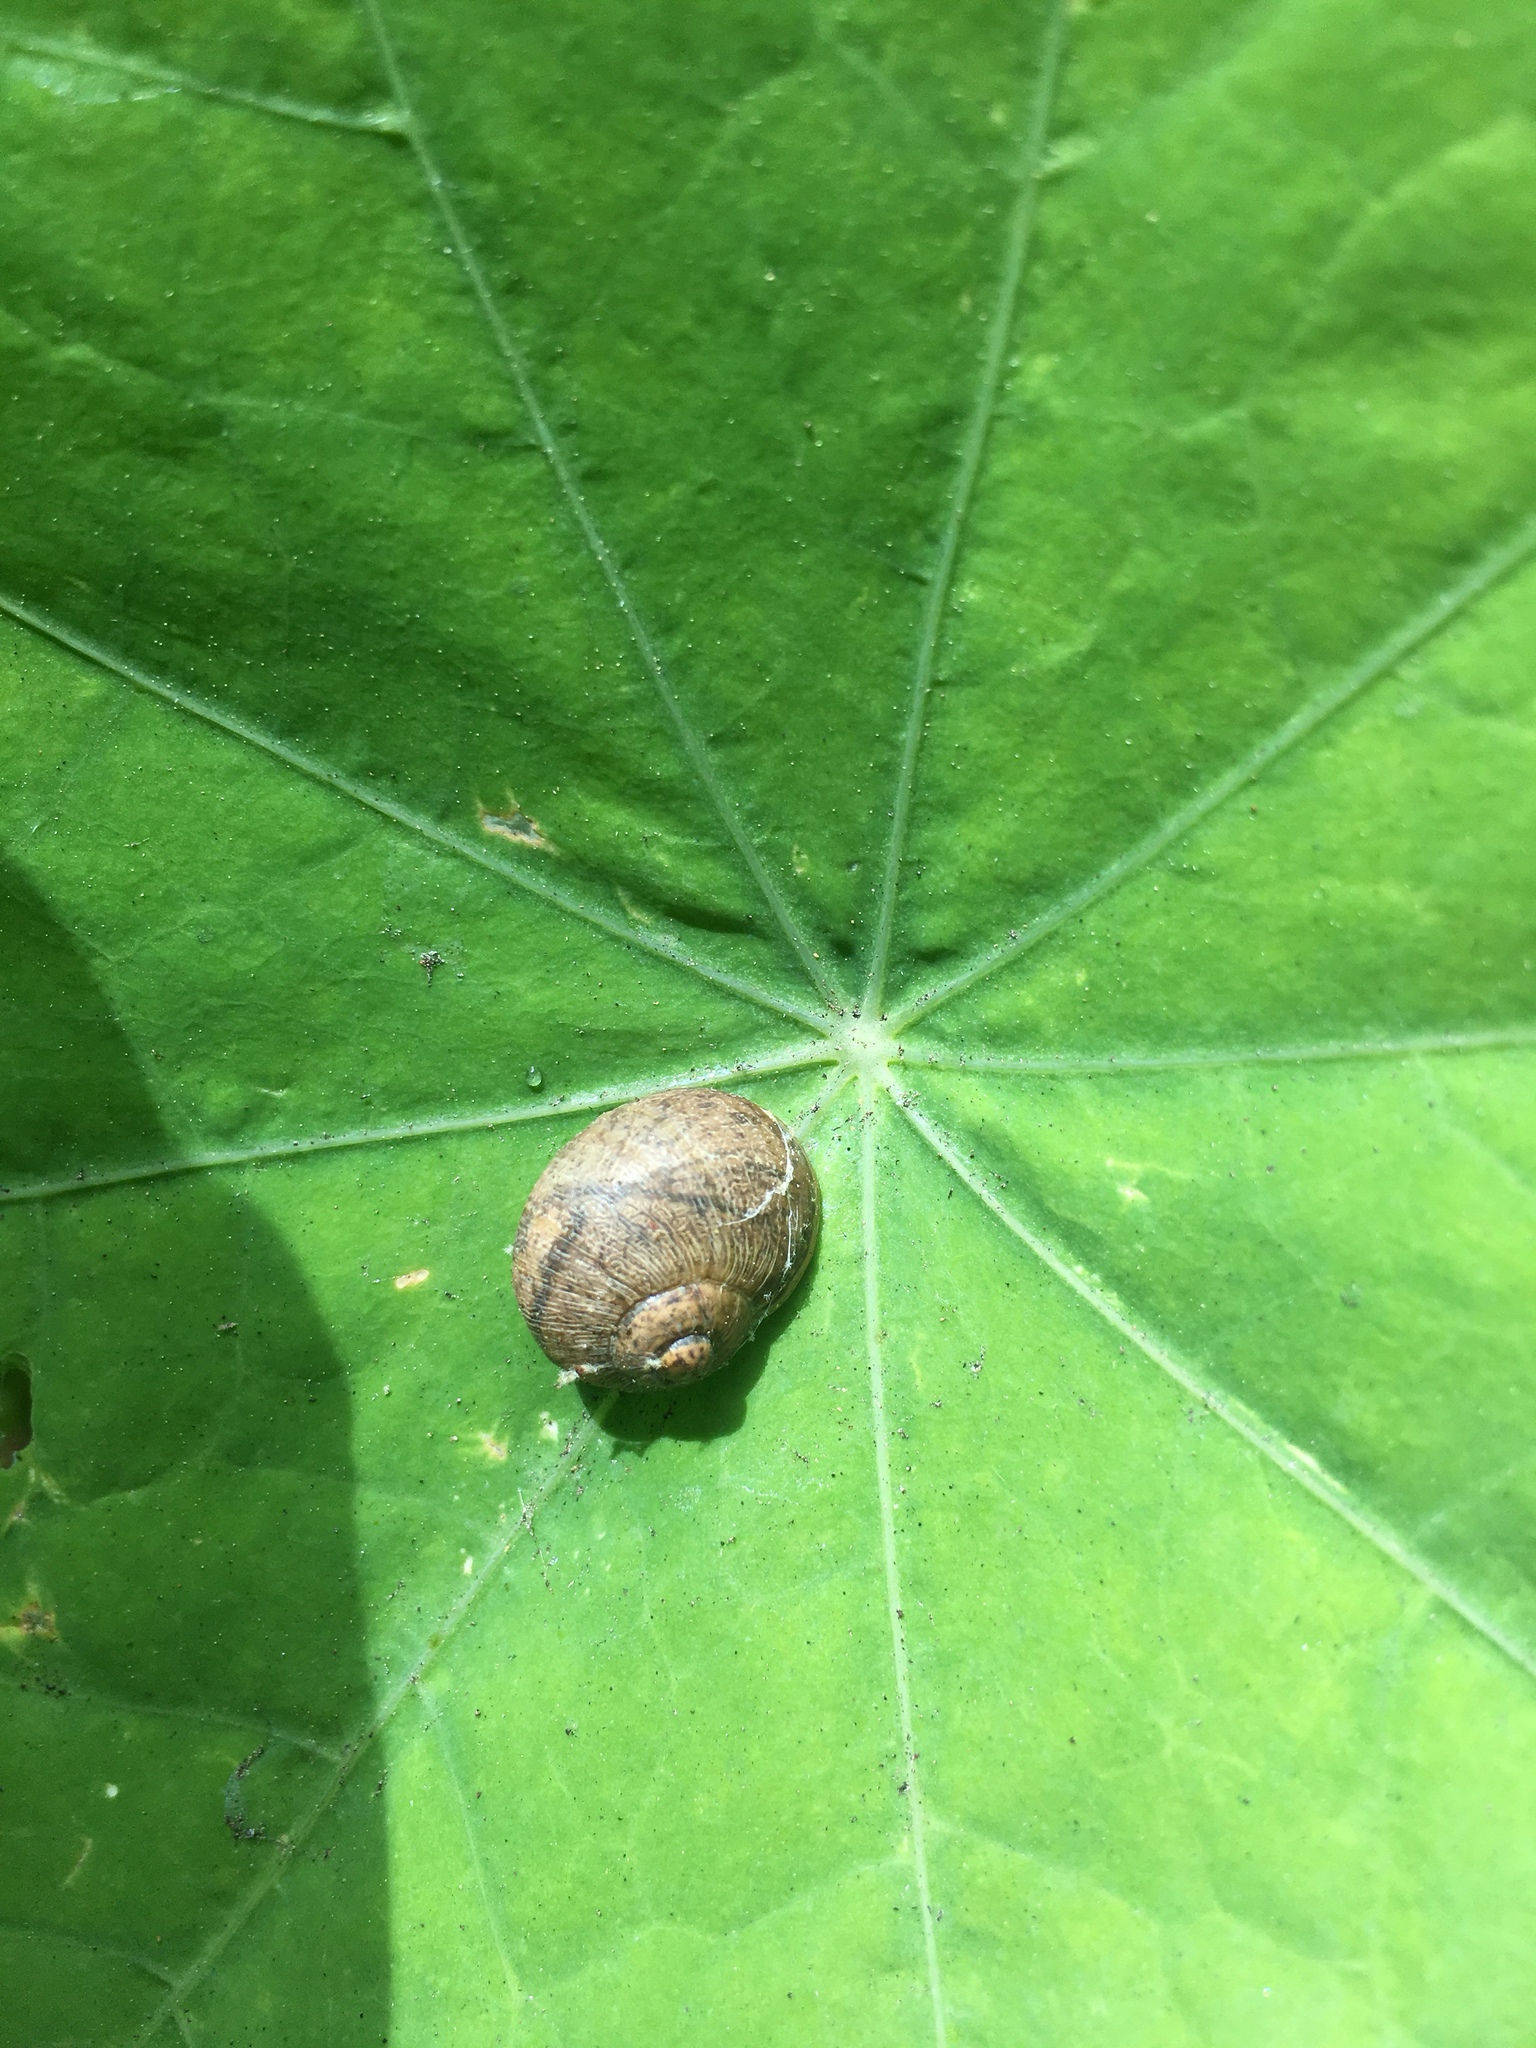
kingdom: Animalia
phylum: Mollusca
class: Gastropoda
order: Stylommatophora
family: Helicidae
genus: Cornu
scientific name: Cornu aspersum
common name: Brown garden snail
